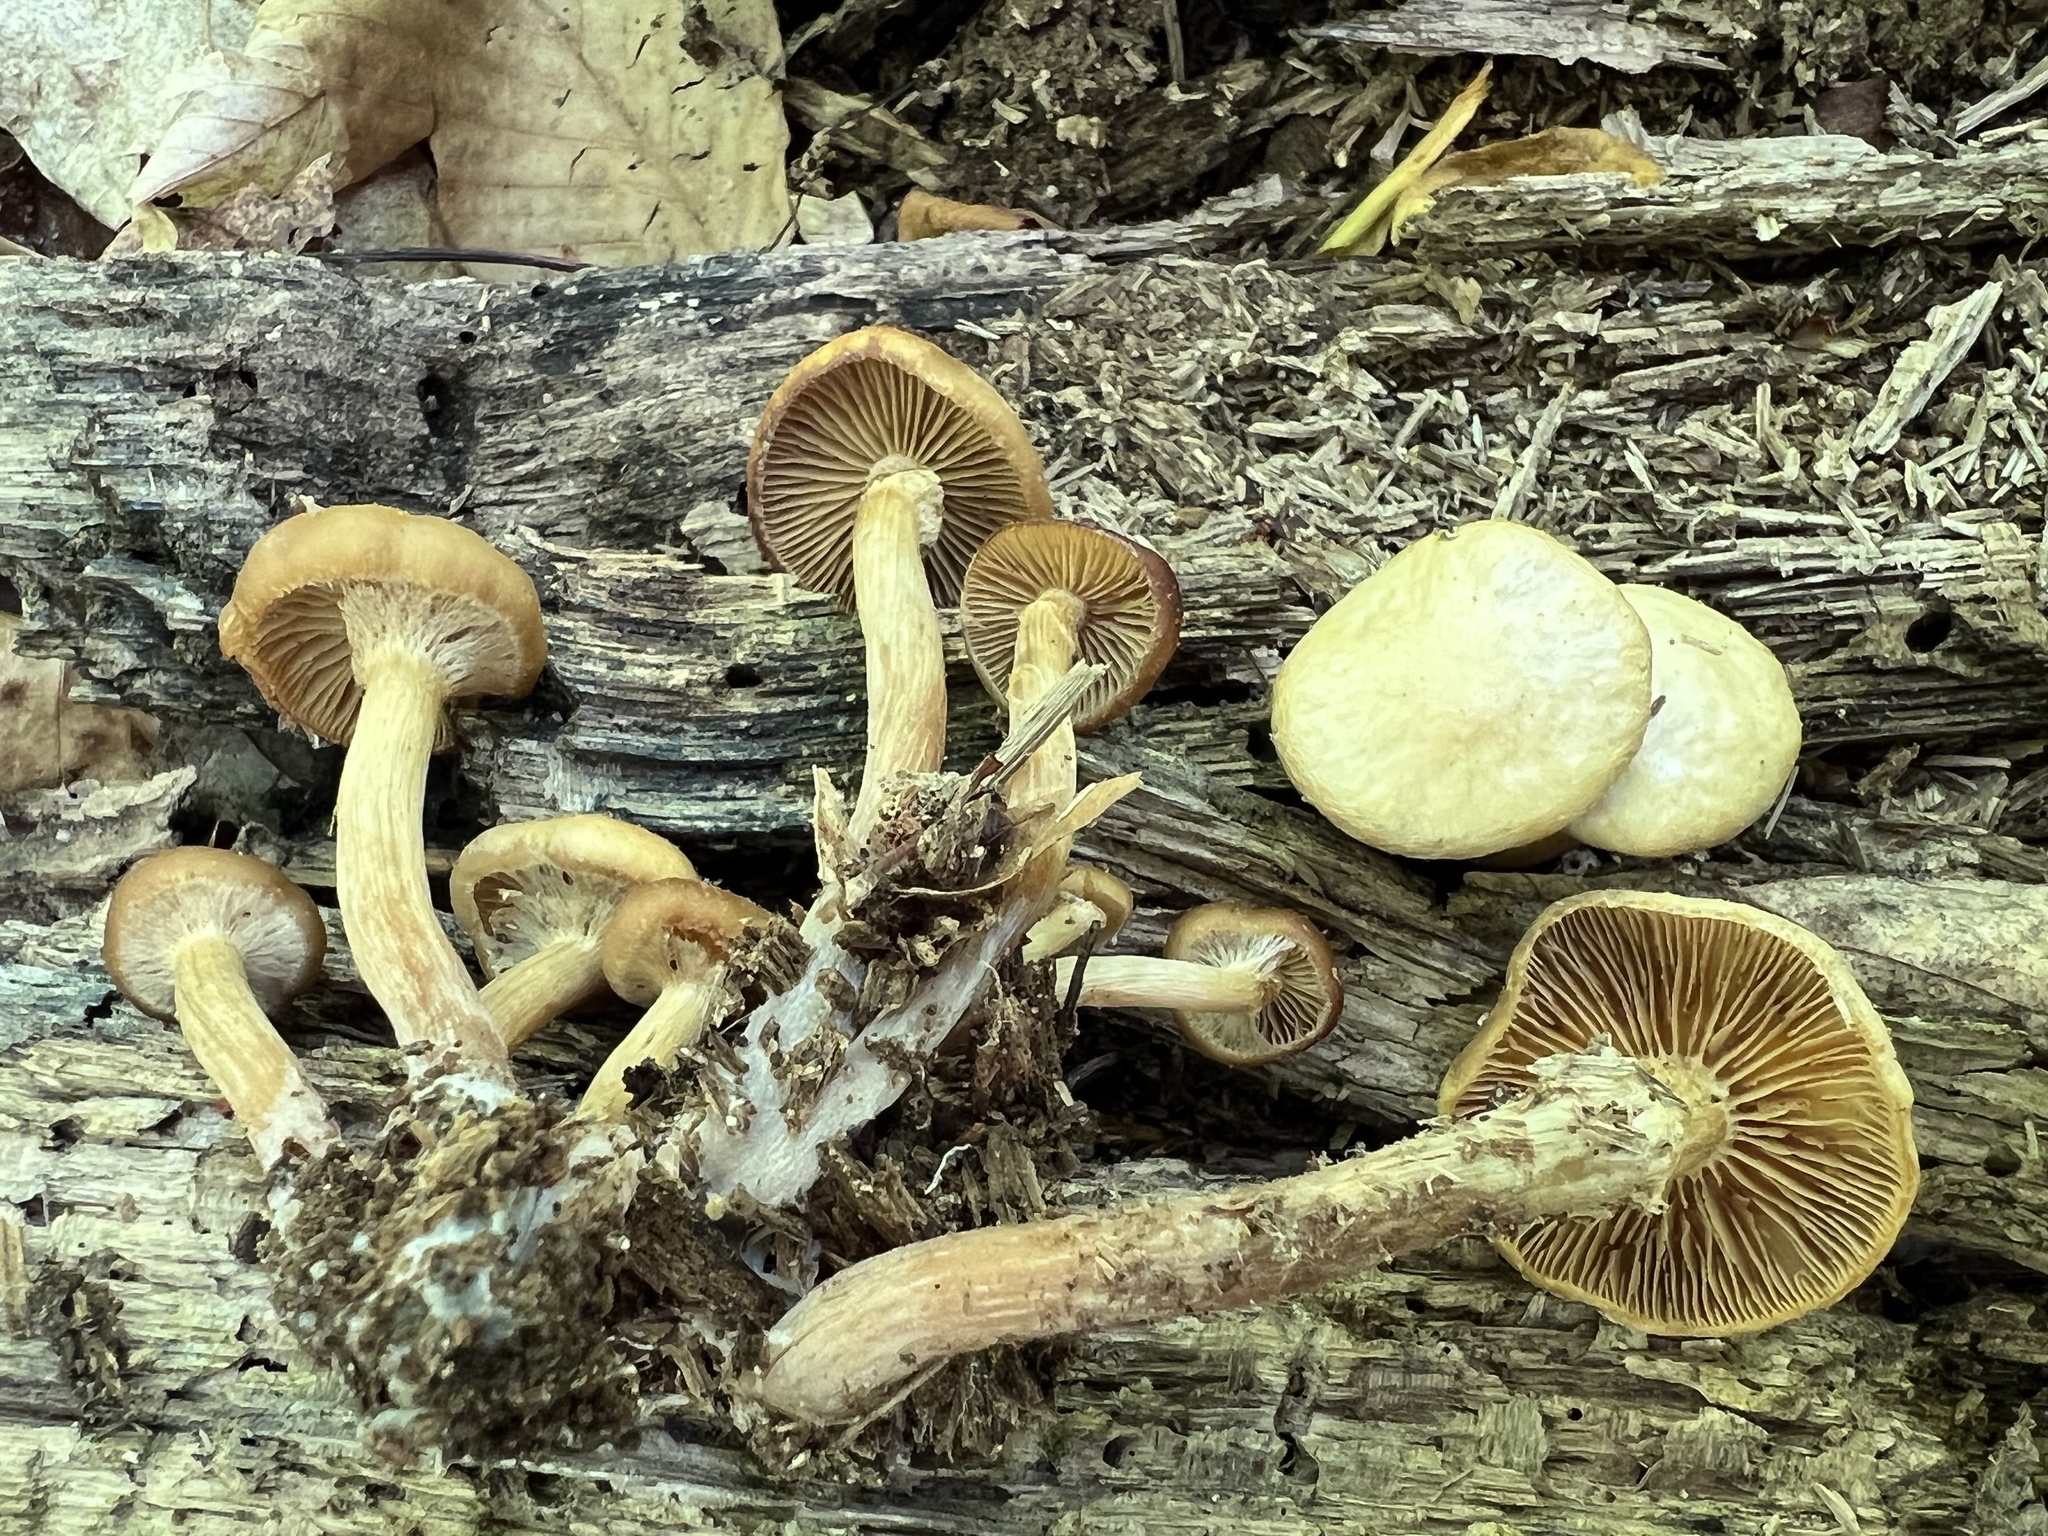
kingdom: Fungi
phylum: Basidiomycota
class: Agaricomycetes
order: Agaricales
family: Strophariaceae
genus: Kuehneromyces
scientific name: Kuehneromyces marginellus
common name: Sheathed woodtuft
